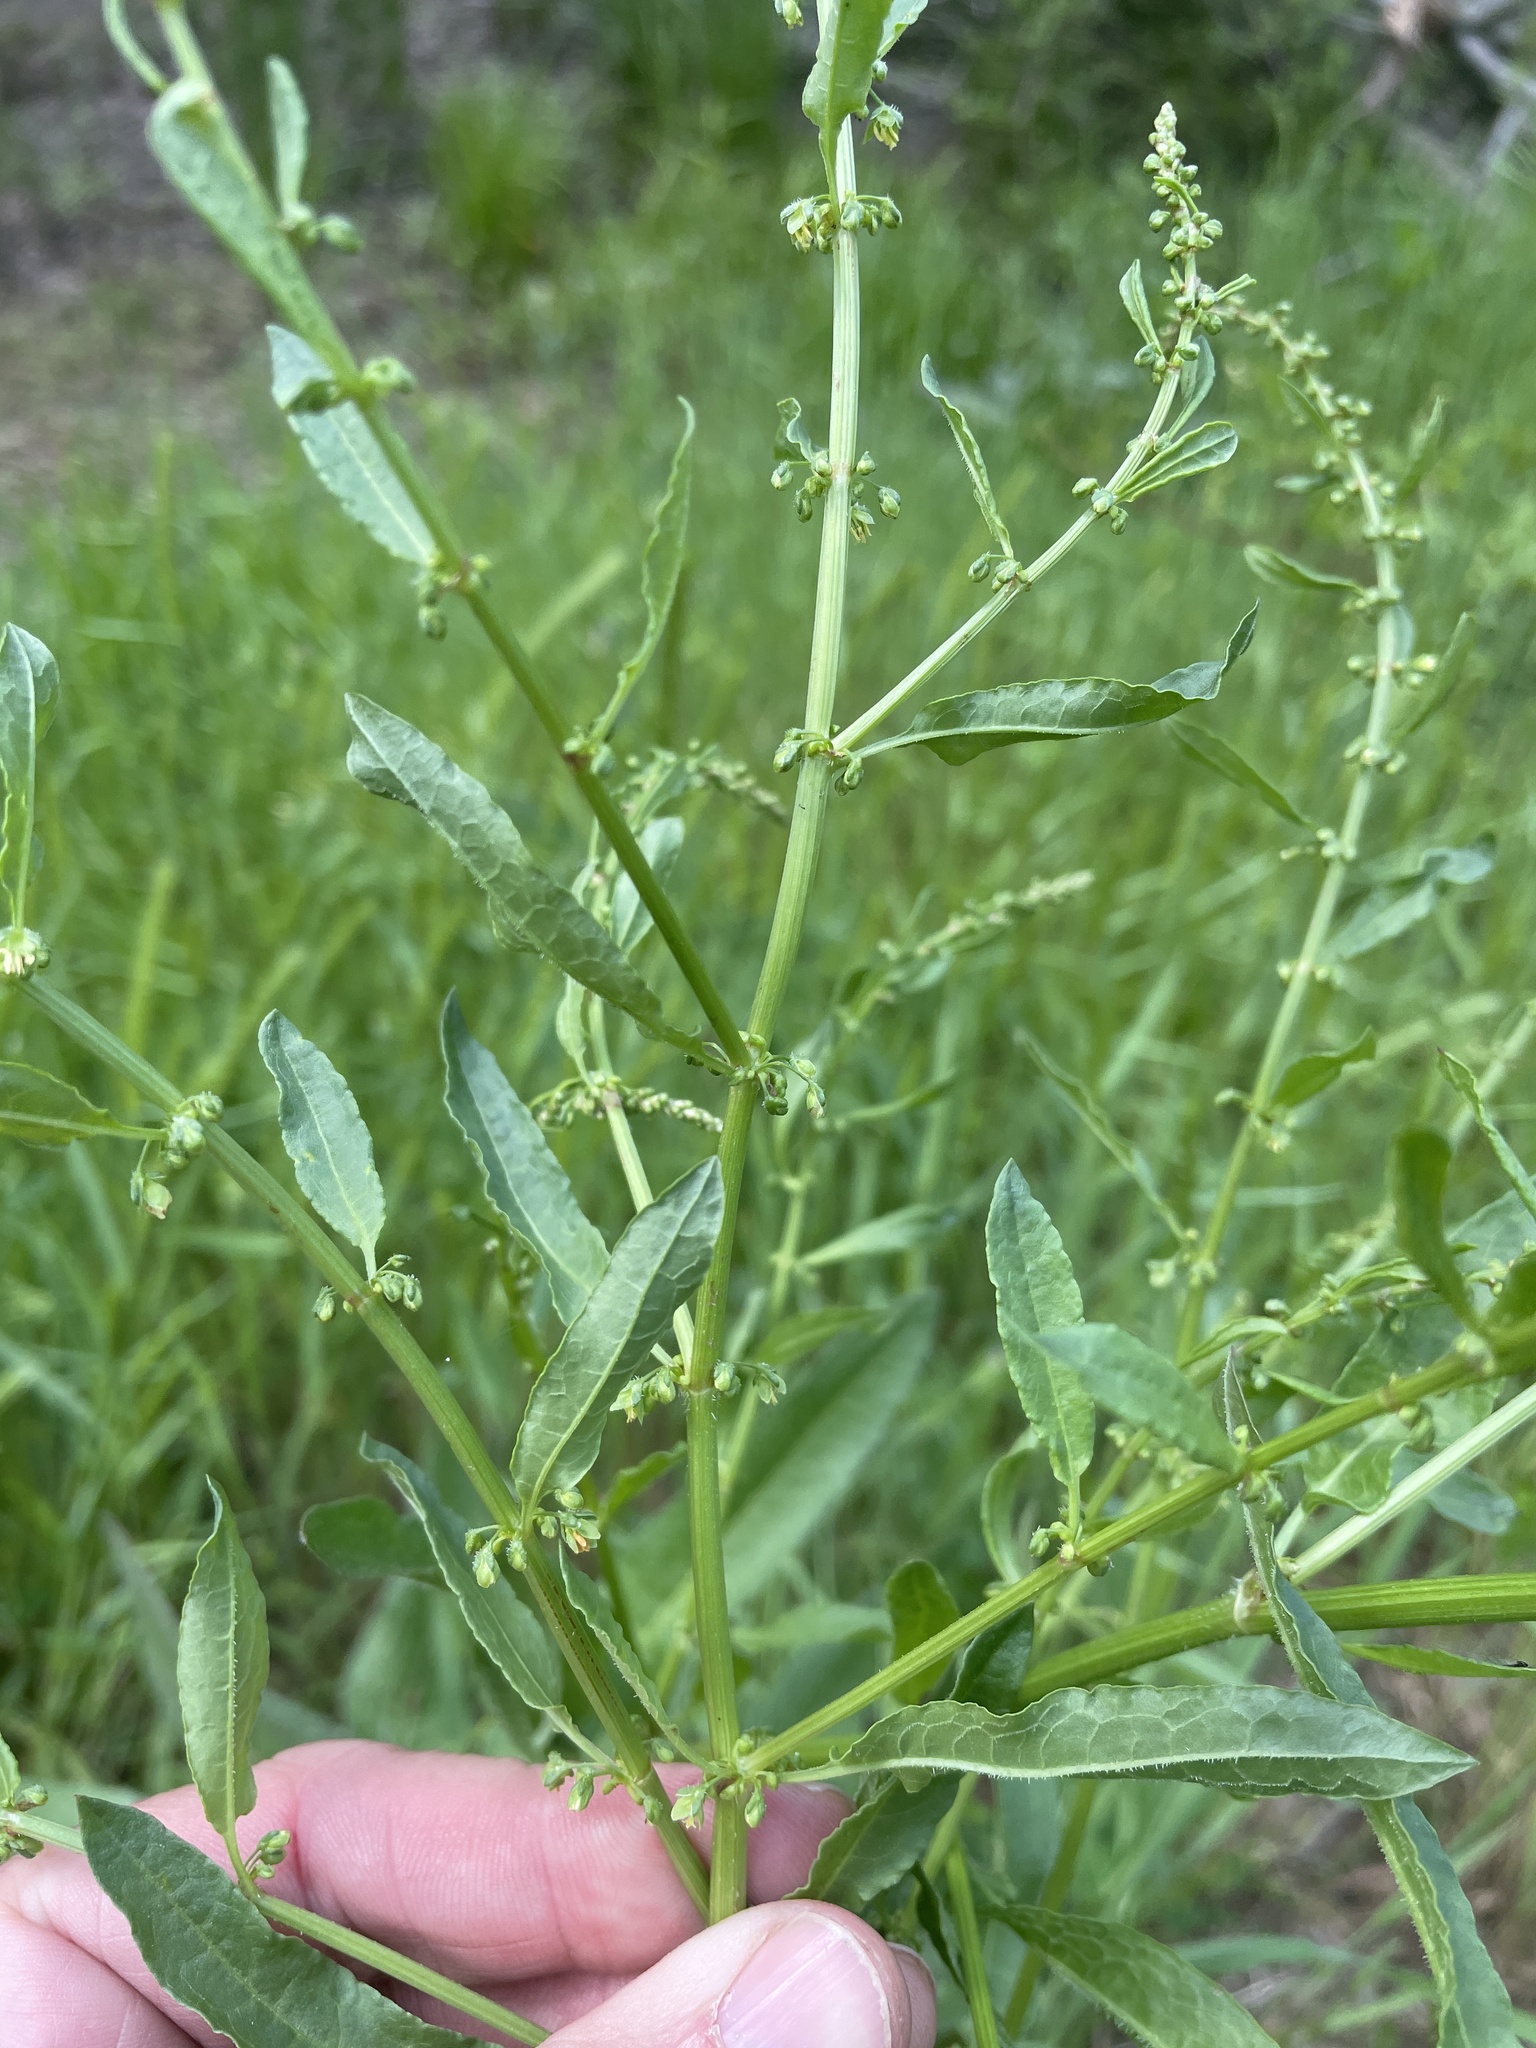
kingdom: Plantae
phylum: Tracheophyta
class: Magnoliopsida
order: Caryophyllales
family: Polygonaceae
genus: Rumex
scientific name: Rumex pulcher
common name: Fiddle dock
